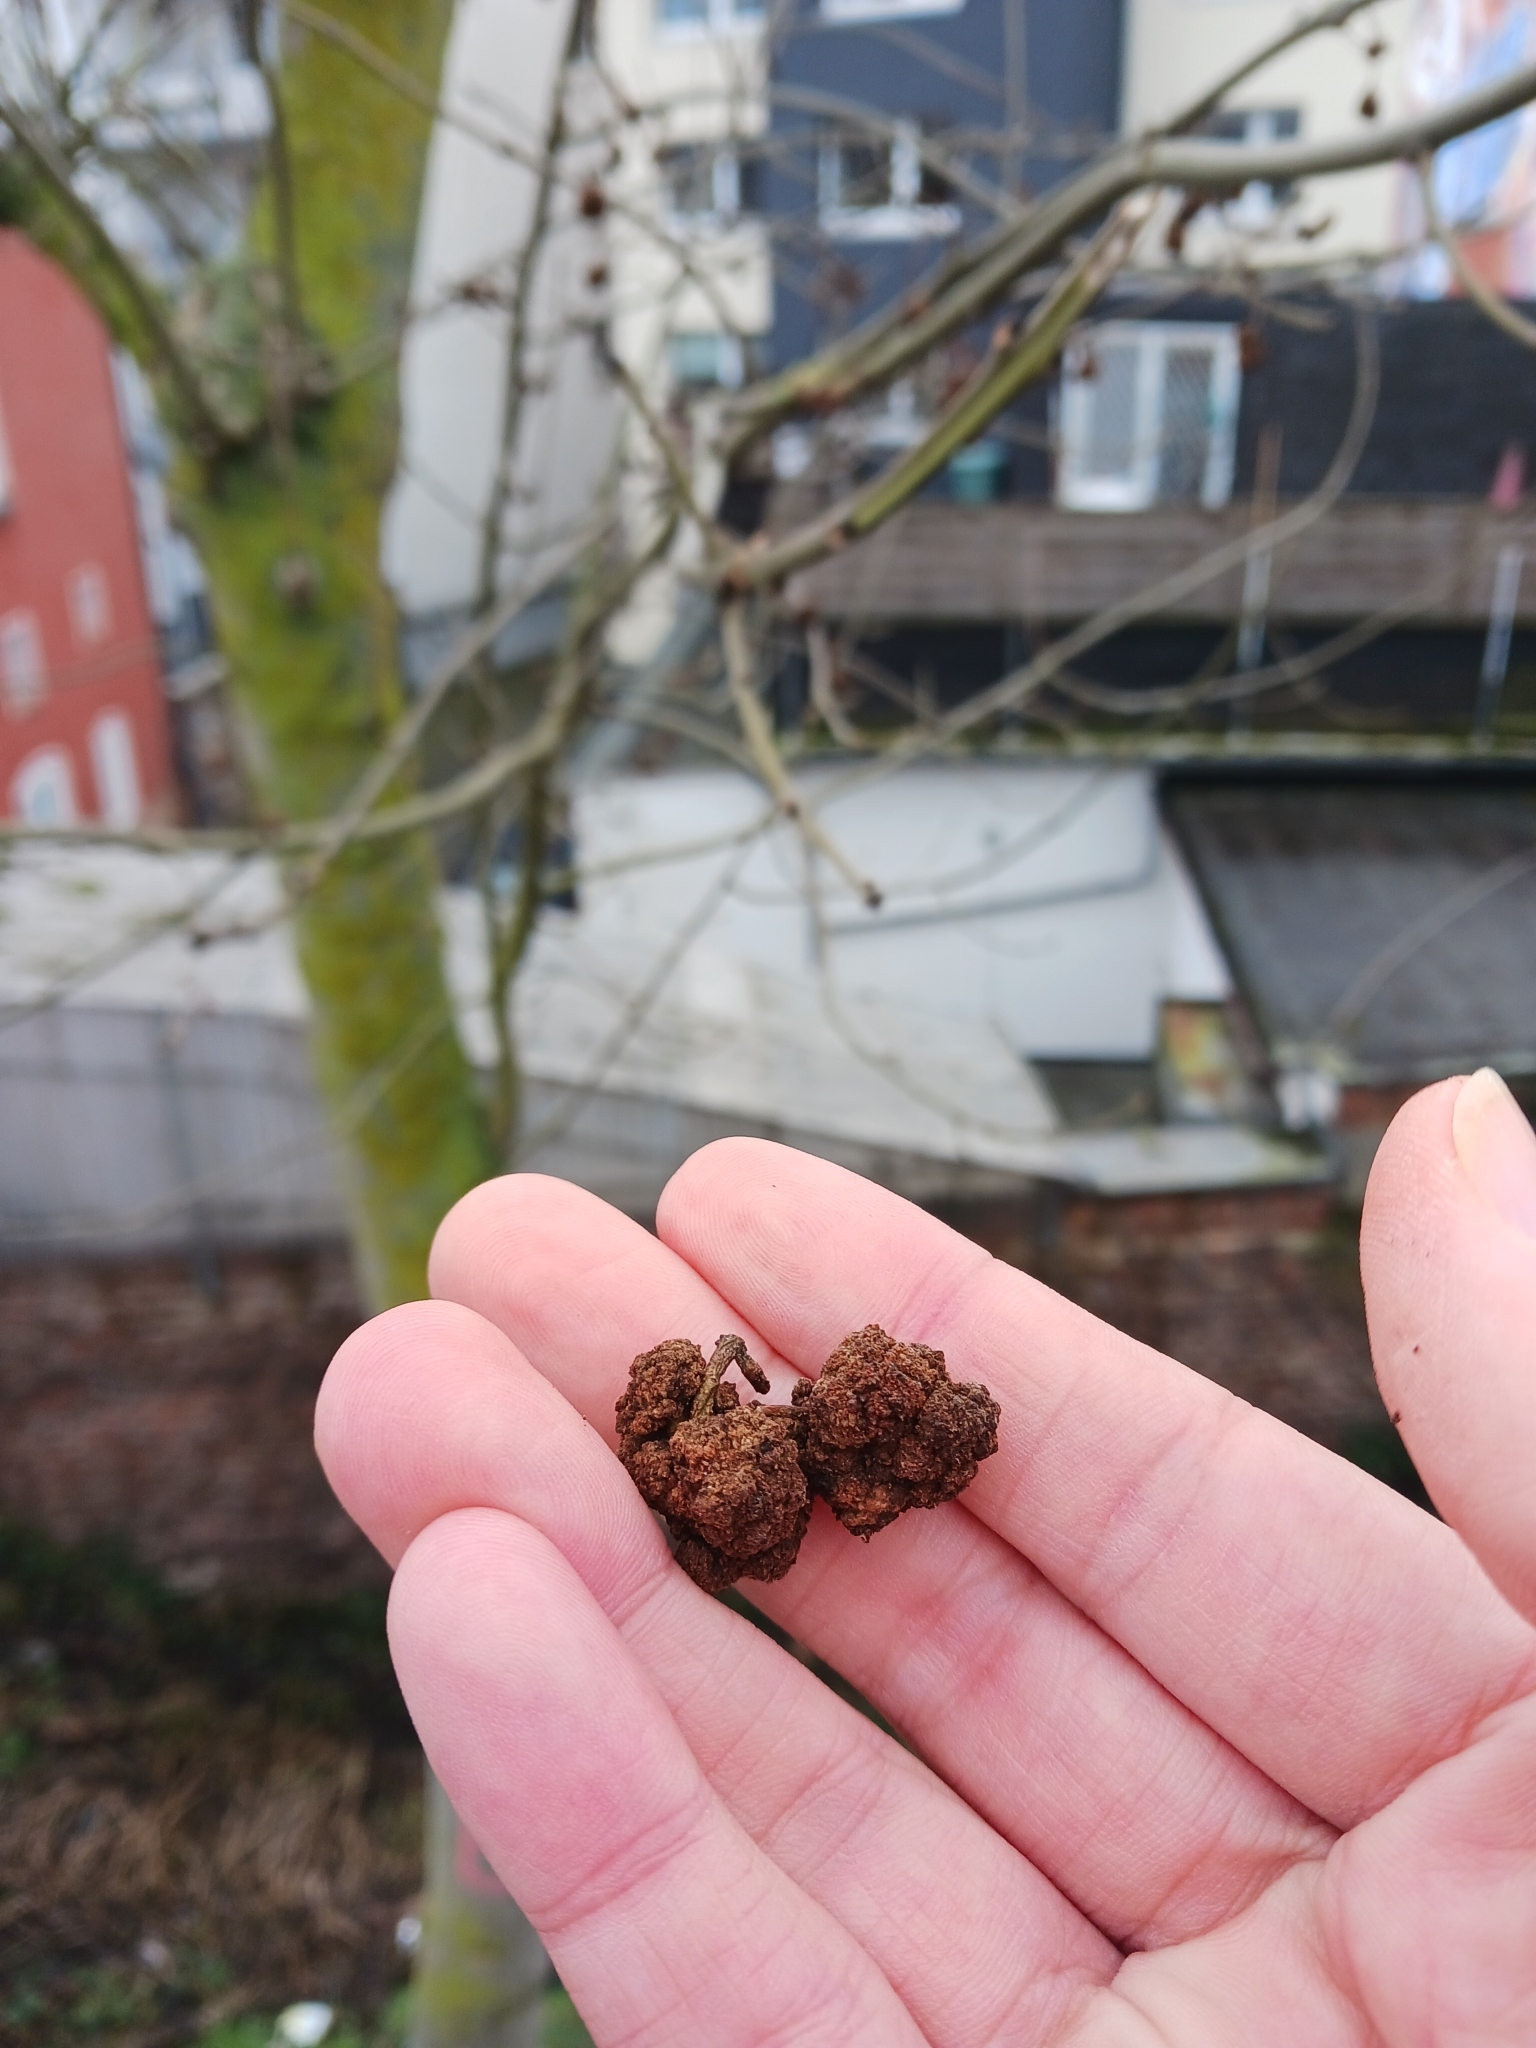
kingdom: Animalia
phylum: Arthropoda
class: Arachnida
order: Trombidiformes
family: Eriophyidae
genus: Aceria
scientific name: Aceria fraxinivora
